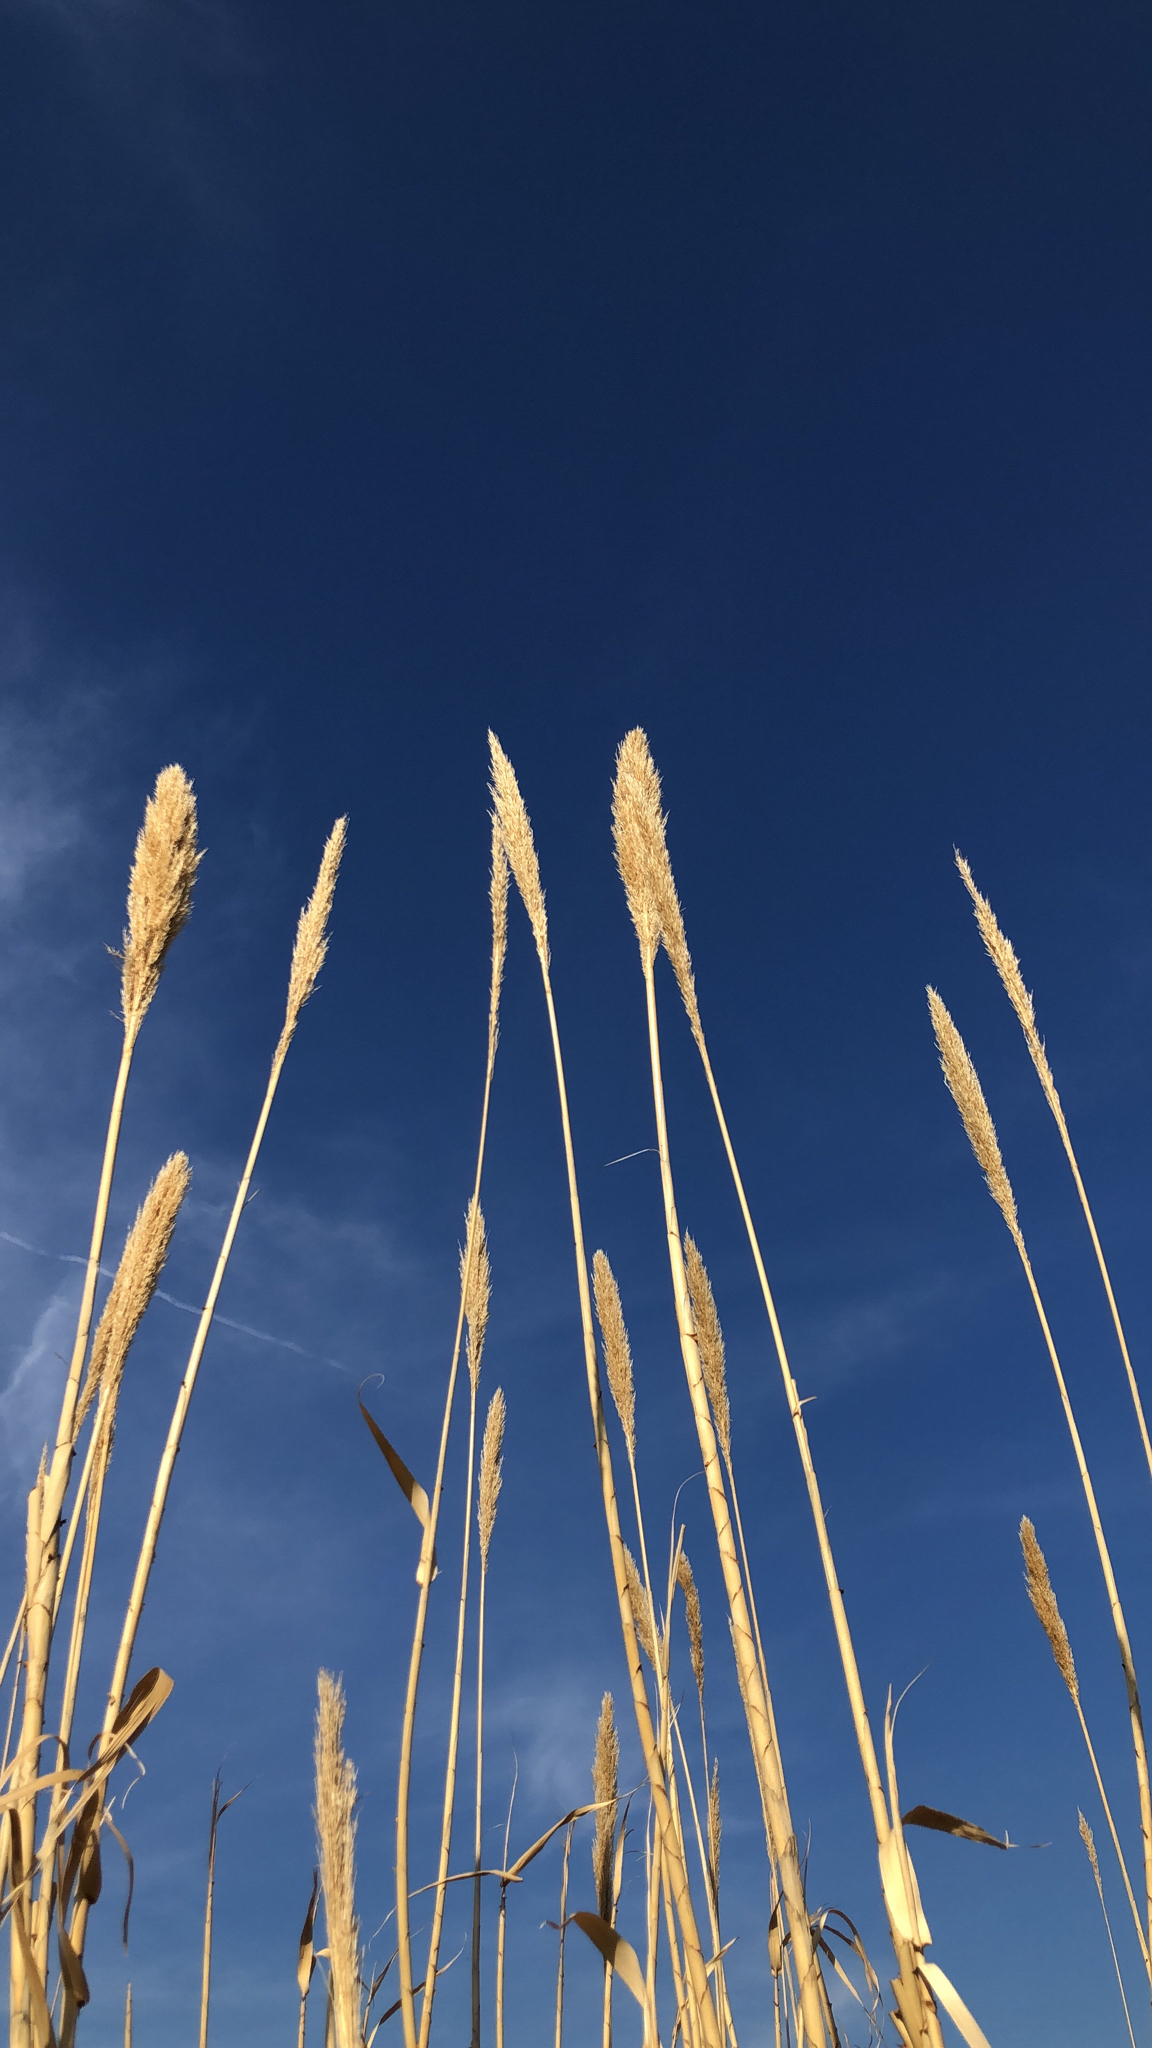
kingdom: Plantae
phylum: Tracheophyta
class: Liliopsida
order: Poales
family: Poaceae
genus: Arundo
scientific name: Arundo donax
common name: Giant reed
